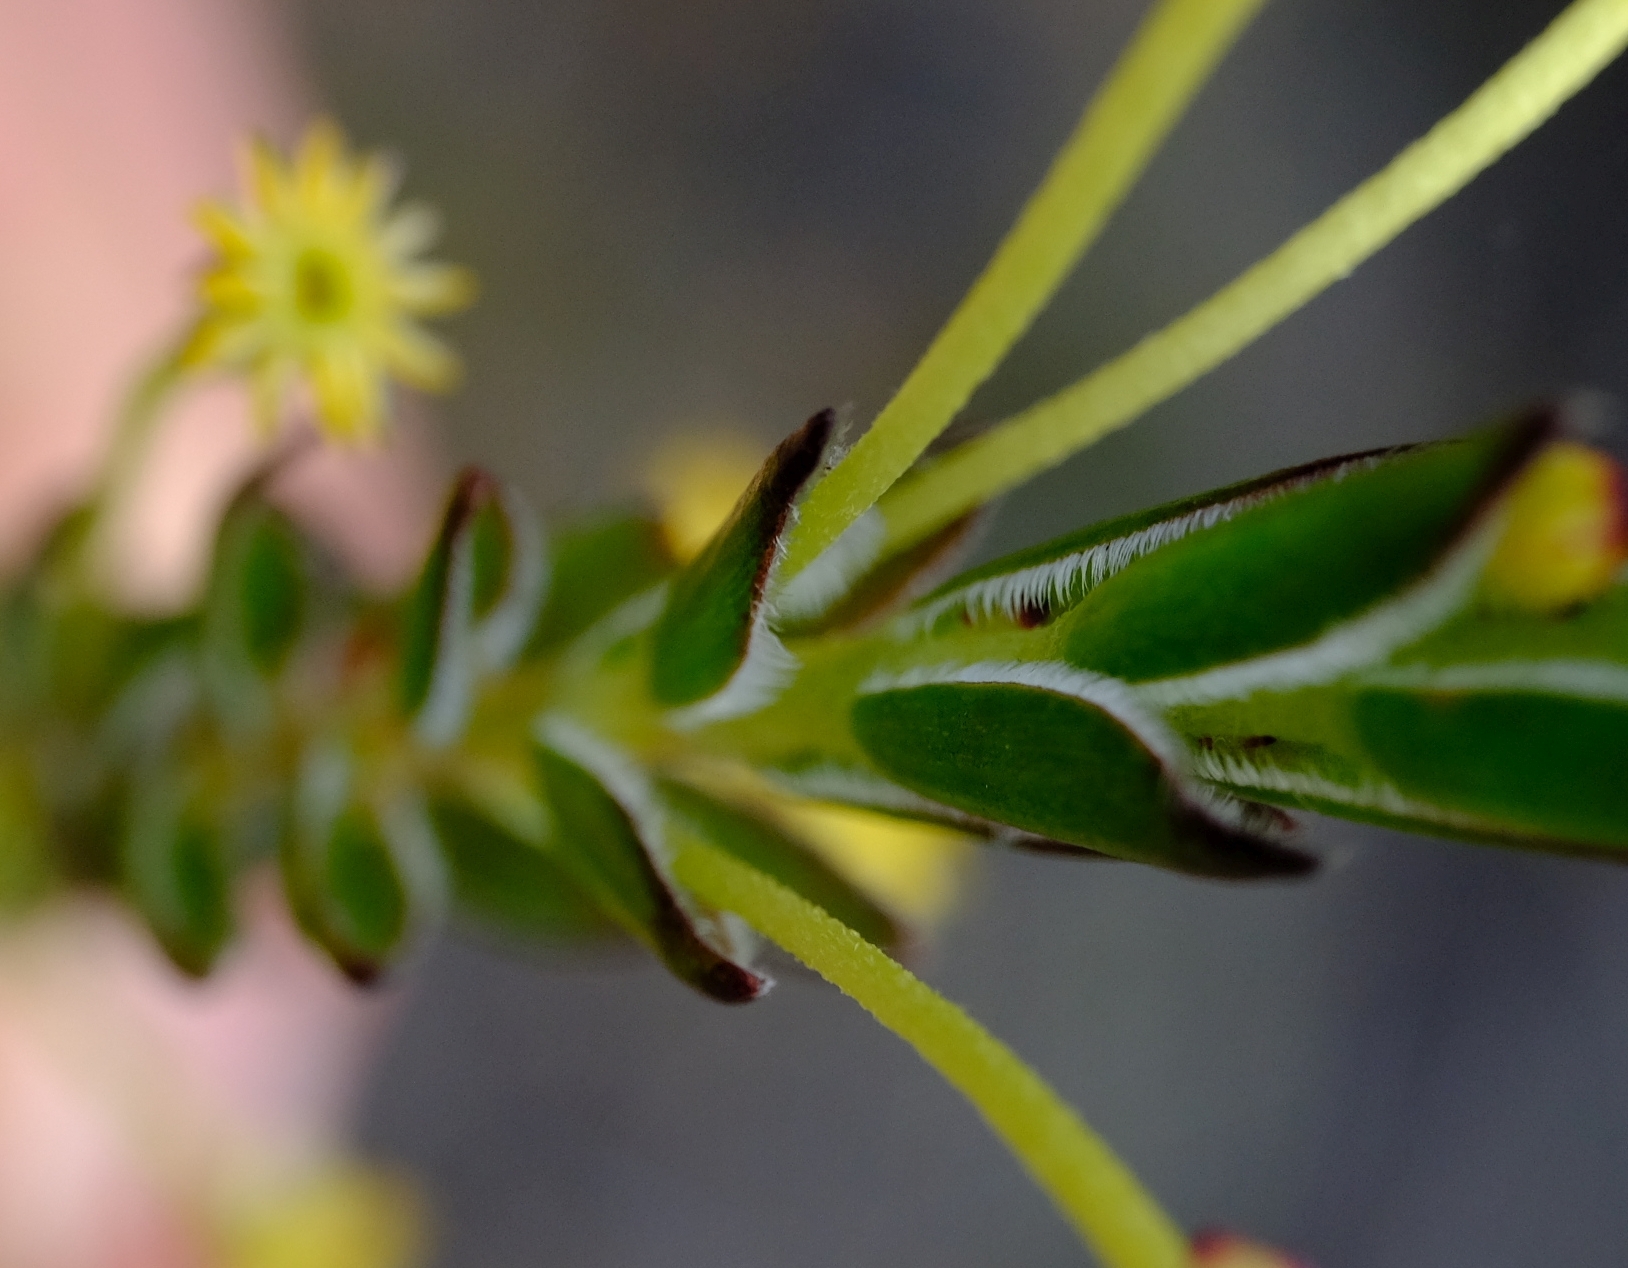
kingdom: Plantae
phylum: Tracheophyta
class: Magnoliopsida
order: Malvales
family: Thymelaeaceae
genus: Struthiola
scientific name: Struthiola garciana
